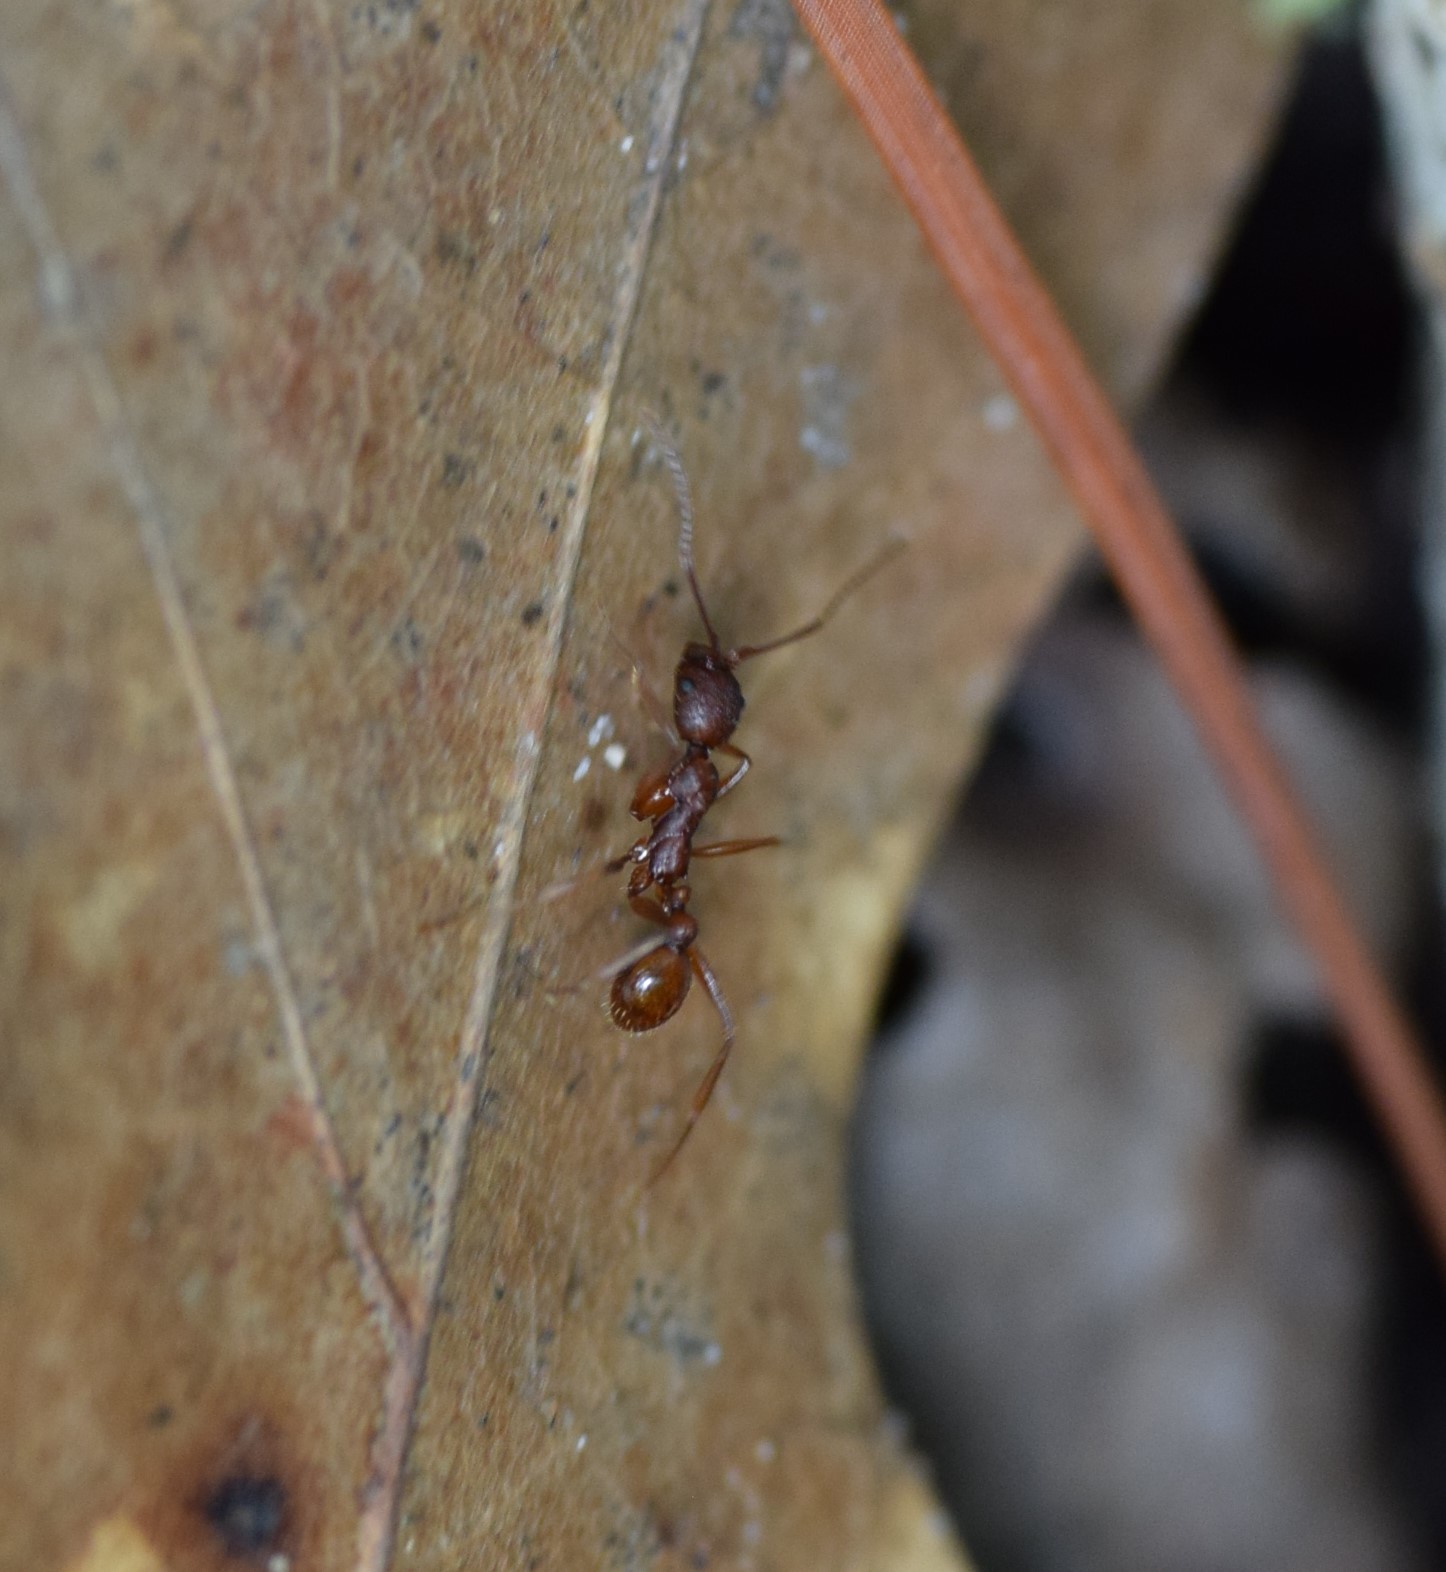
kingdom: Animalia
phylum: Arthropoda
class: Insecta
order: Hymenoptera
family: Formicidae
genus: Aphaenogaster
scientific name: Aphaenogaster treatae
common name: Treat's collared ant
